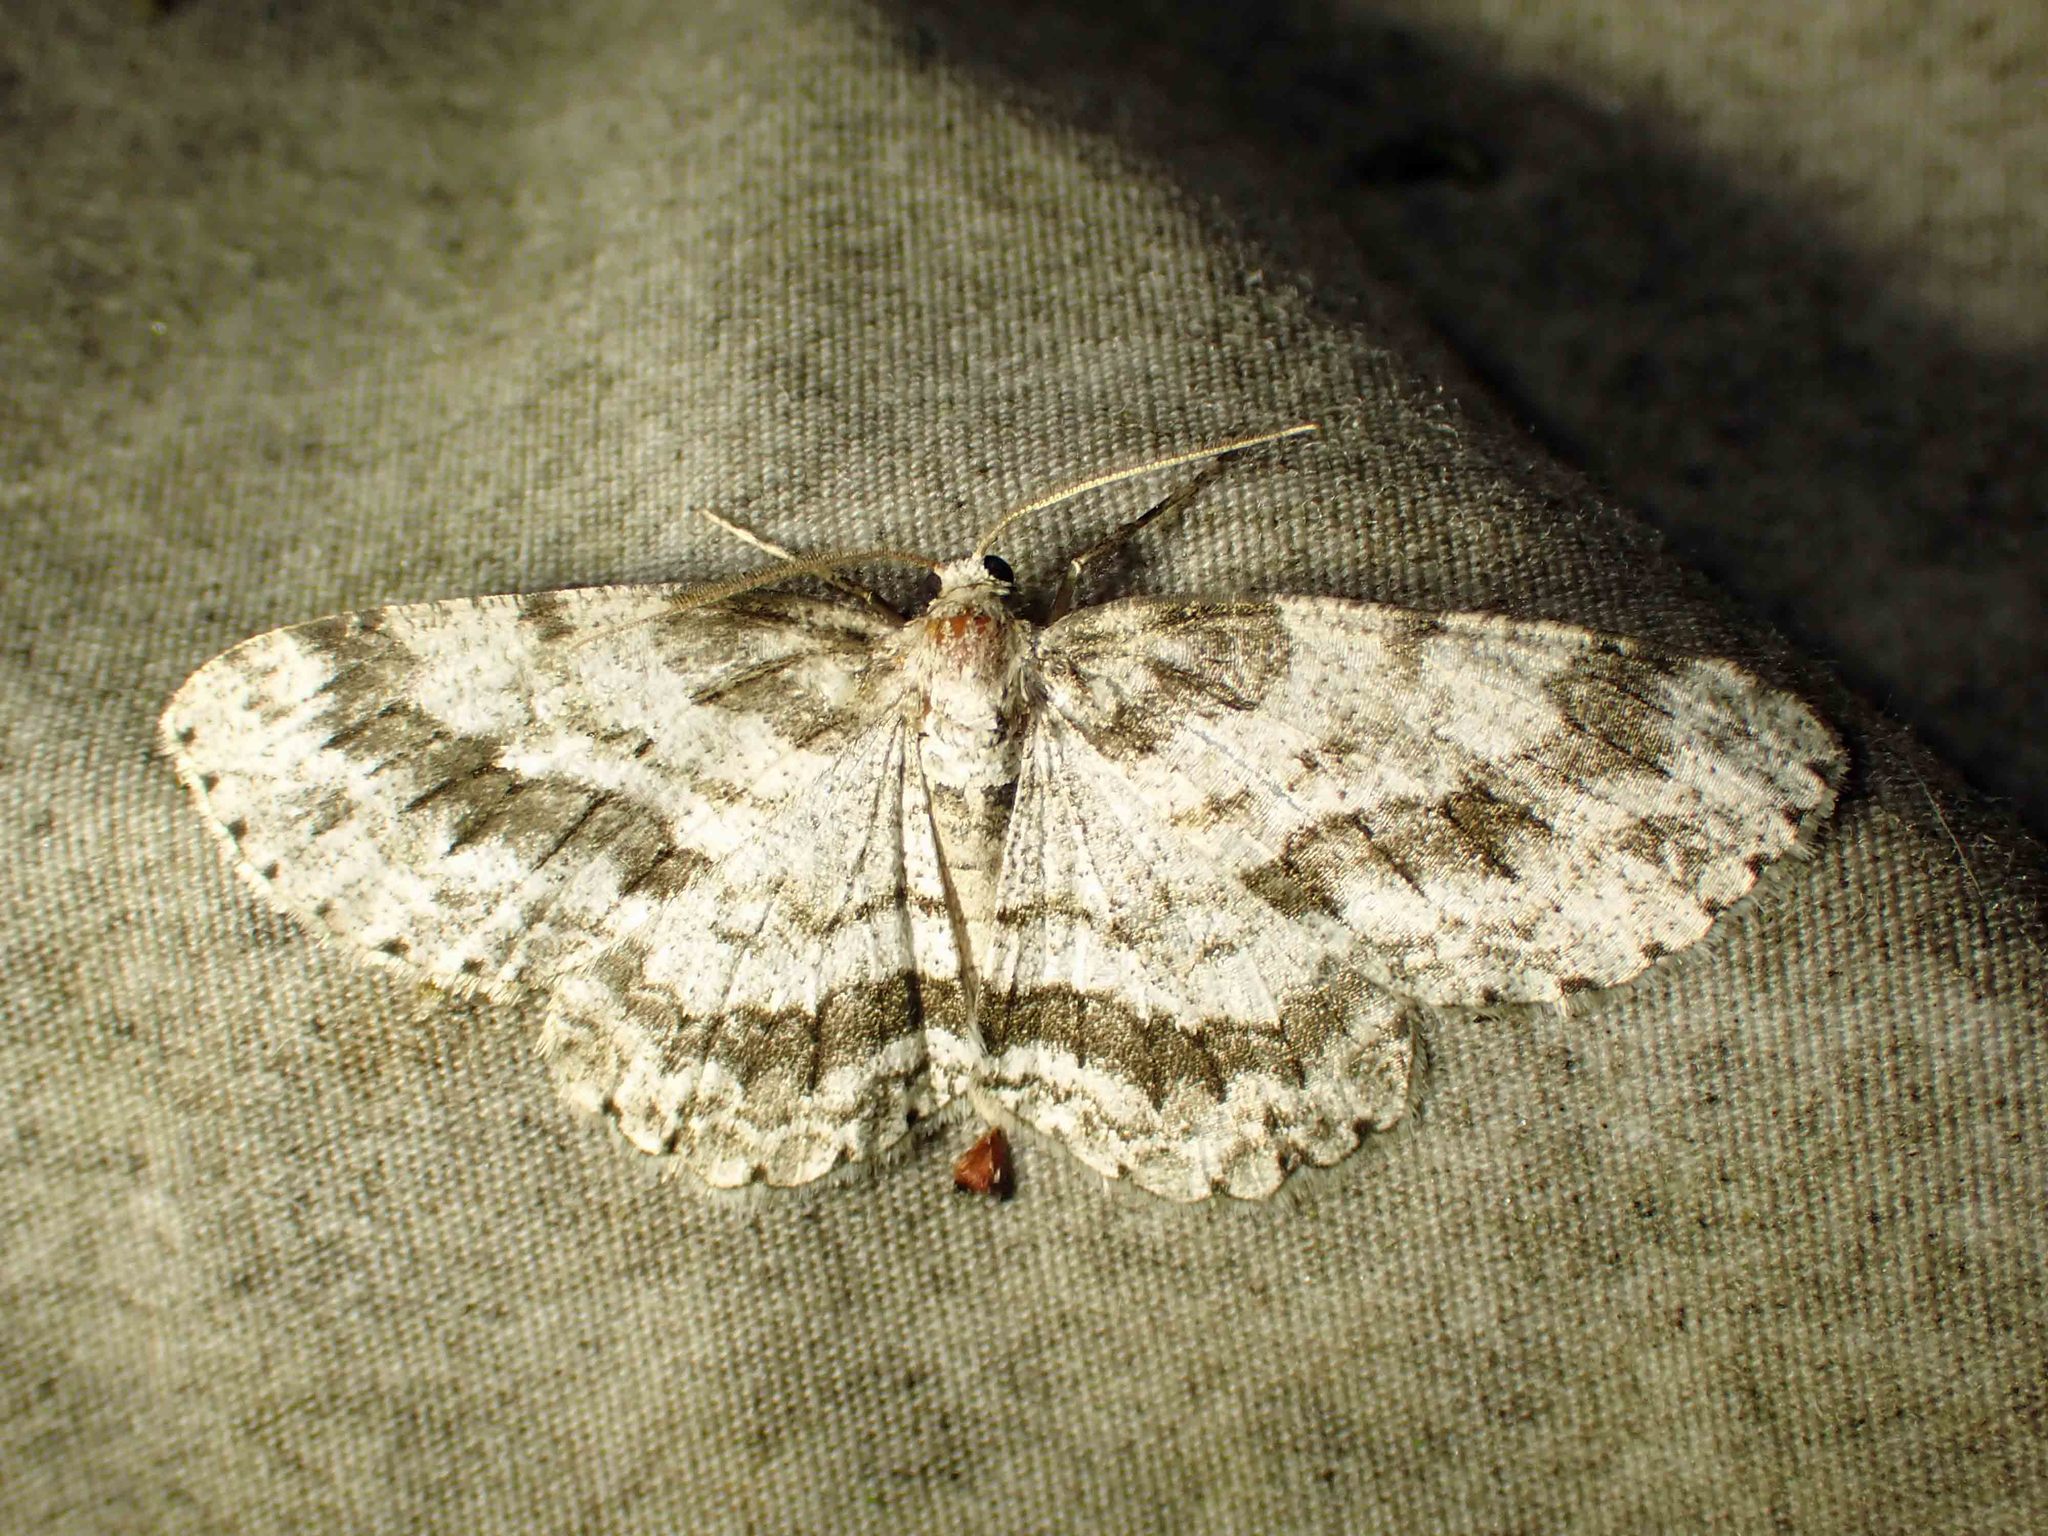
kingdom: Animalia
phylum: Arthropoda
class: Insecta
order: Lepidoptera
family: Geometridae
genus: Ectropis
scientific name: Ectropis crepuscularia
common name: Engrailed
